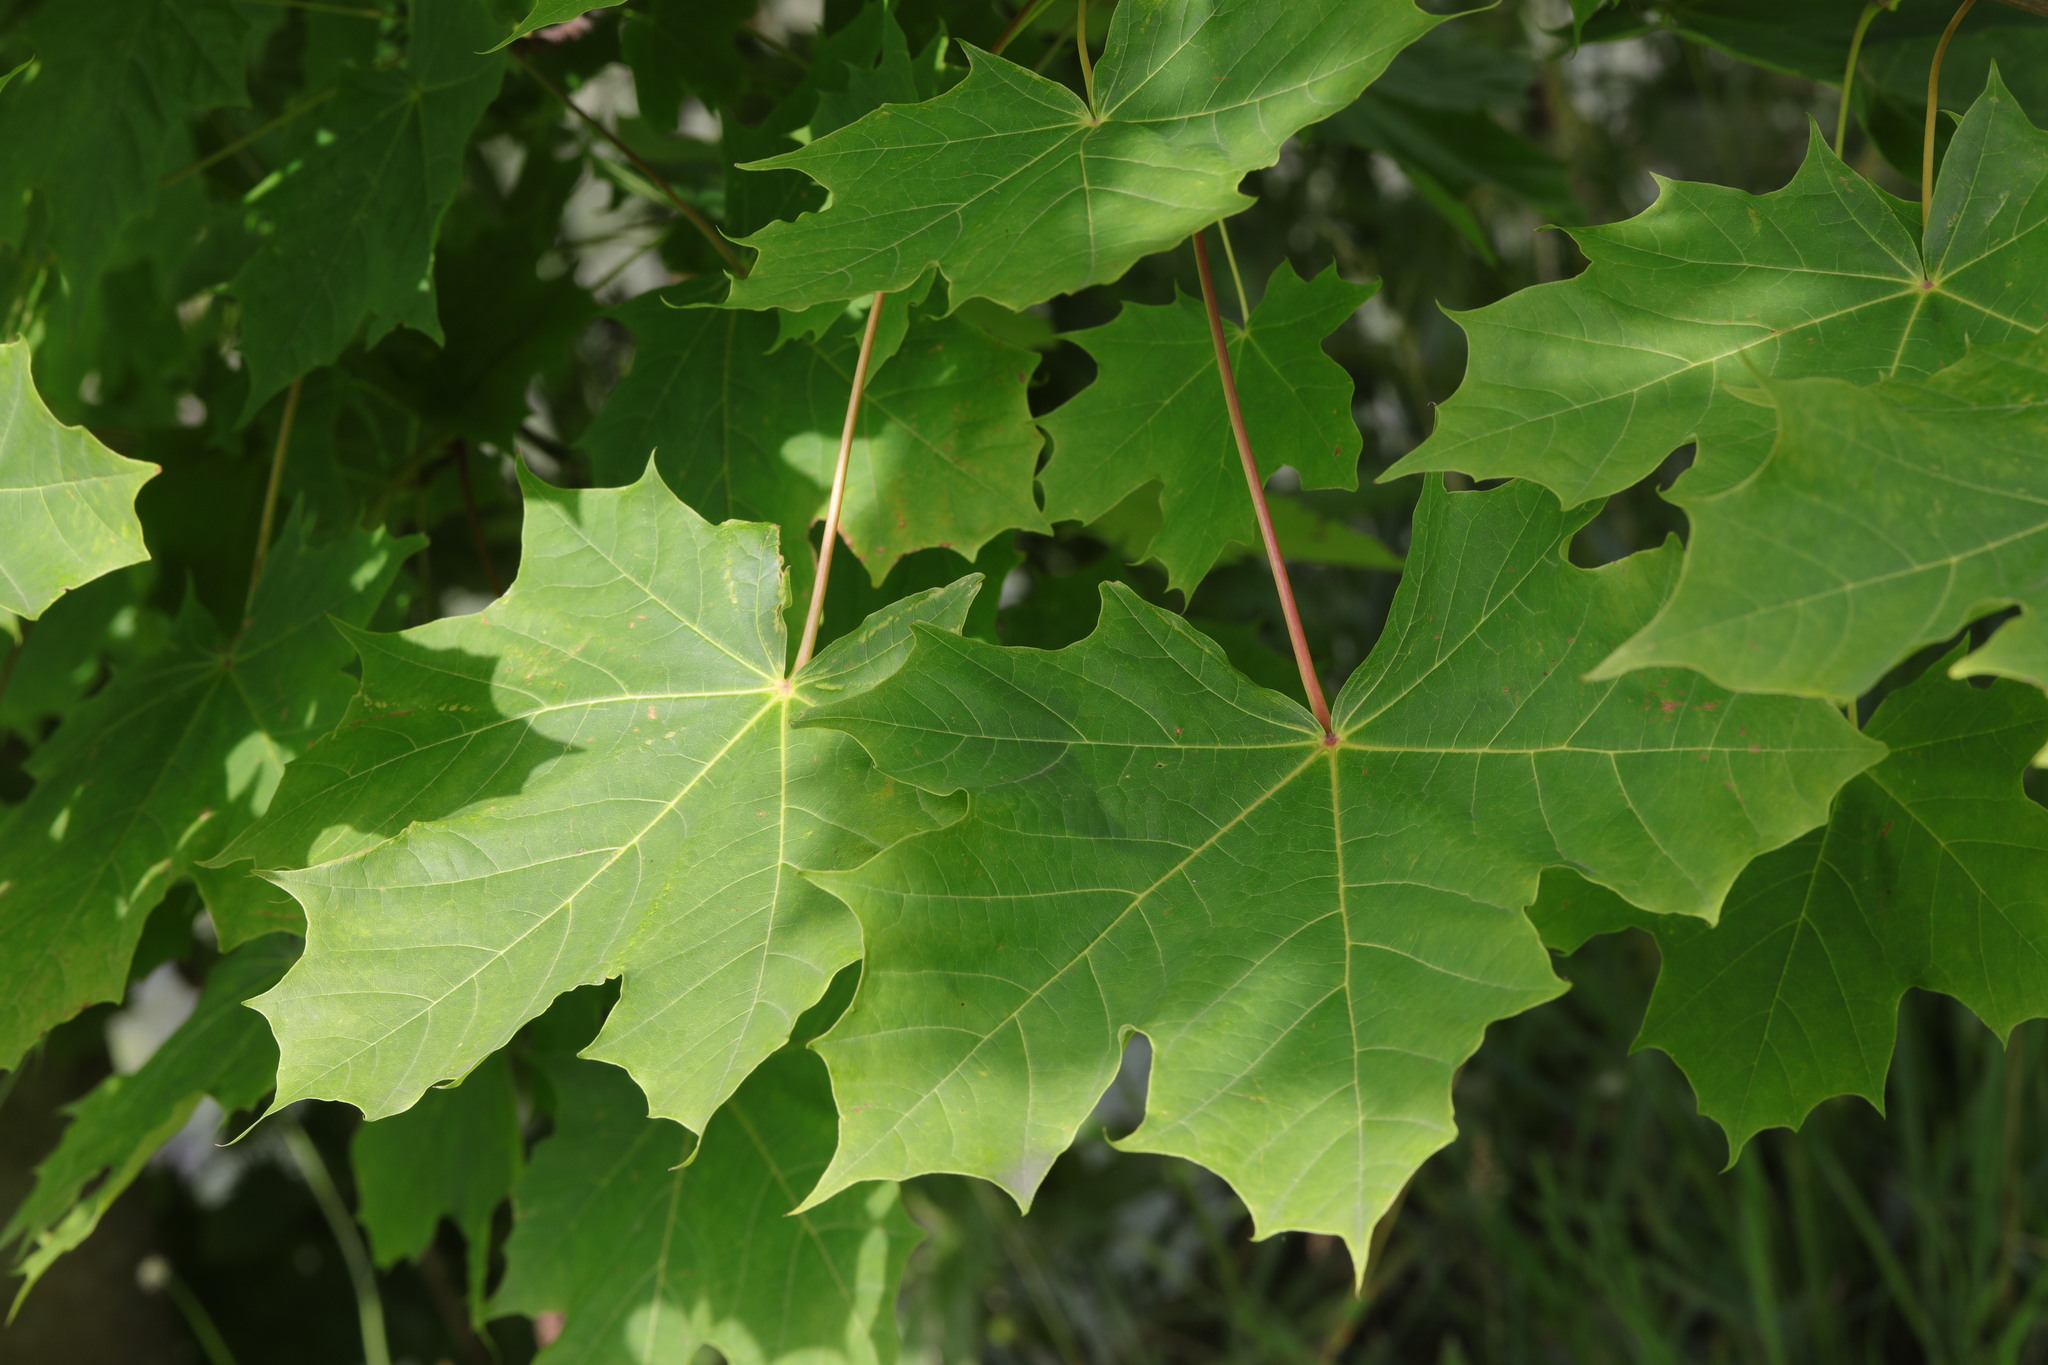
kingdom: Plantae
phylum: Tracheophyta
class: Magnoliopsida
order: Sapindales
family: Sapindaceae
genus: Acer
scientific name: Acer platanoides
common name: Norway maple
